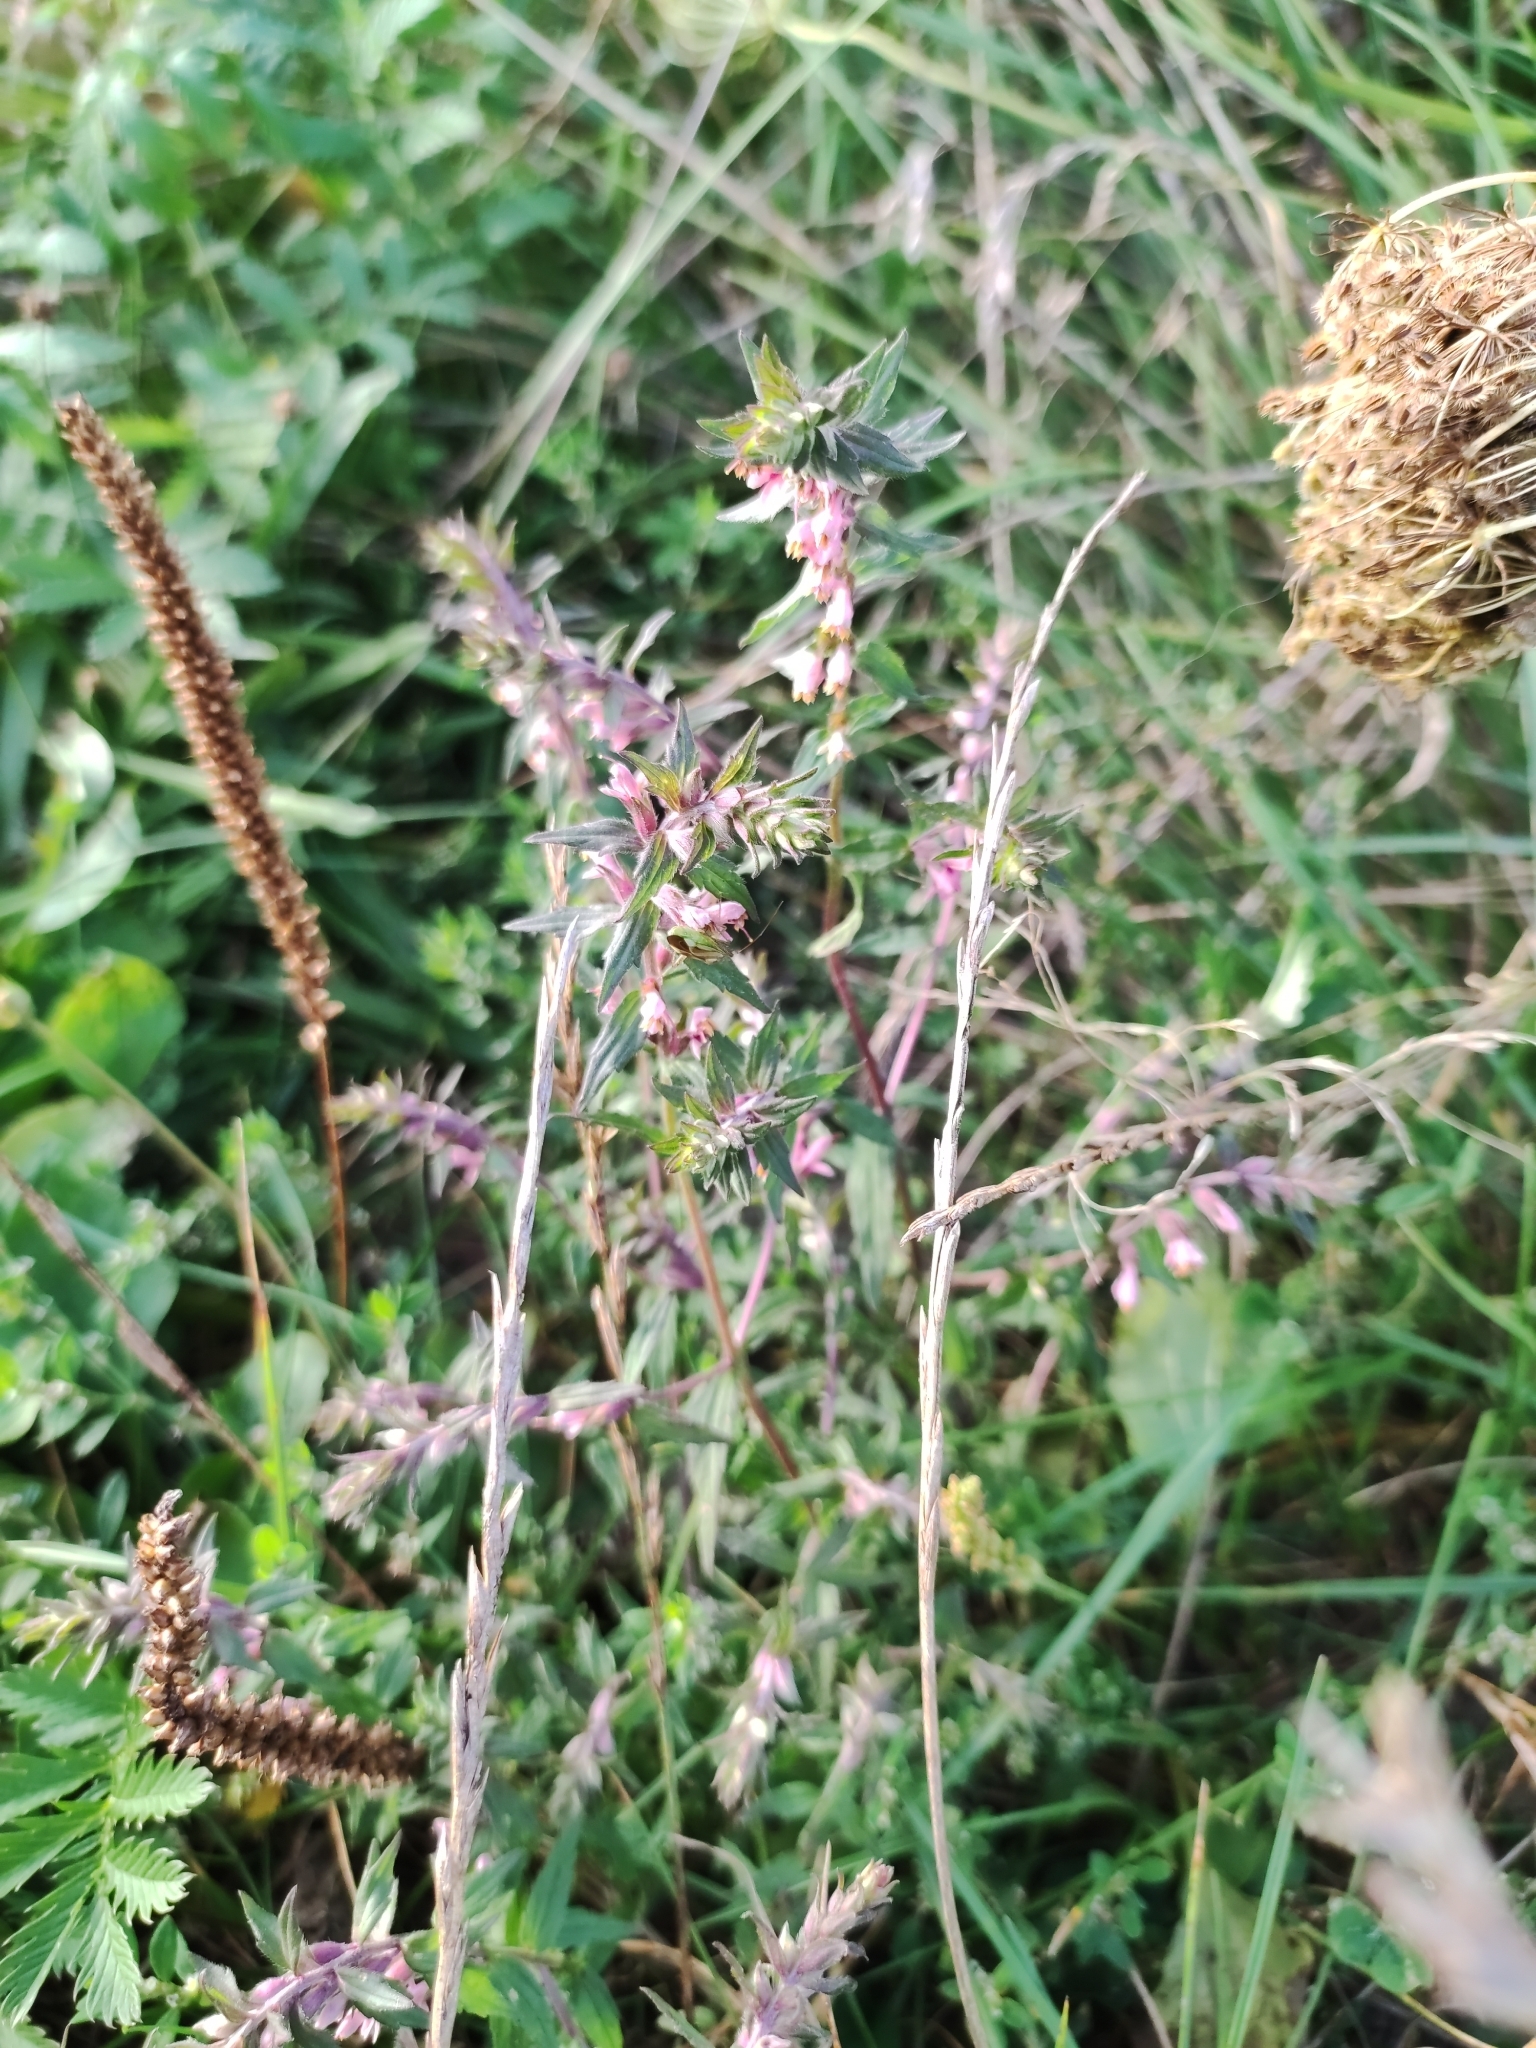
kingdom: Plantae
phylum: Tracheophyta
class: Magnoliopsida
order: Lamiales
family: Orobanchaceae
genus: Odontites
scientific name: Odontites vulgaris
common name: Broomrape
